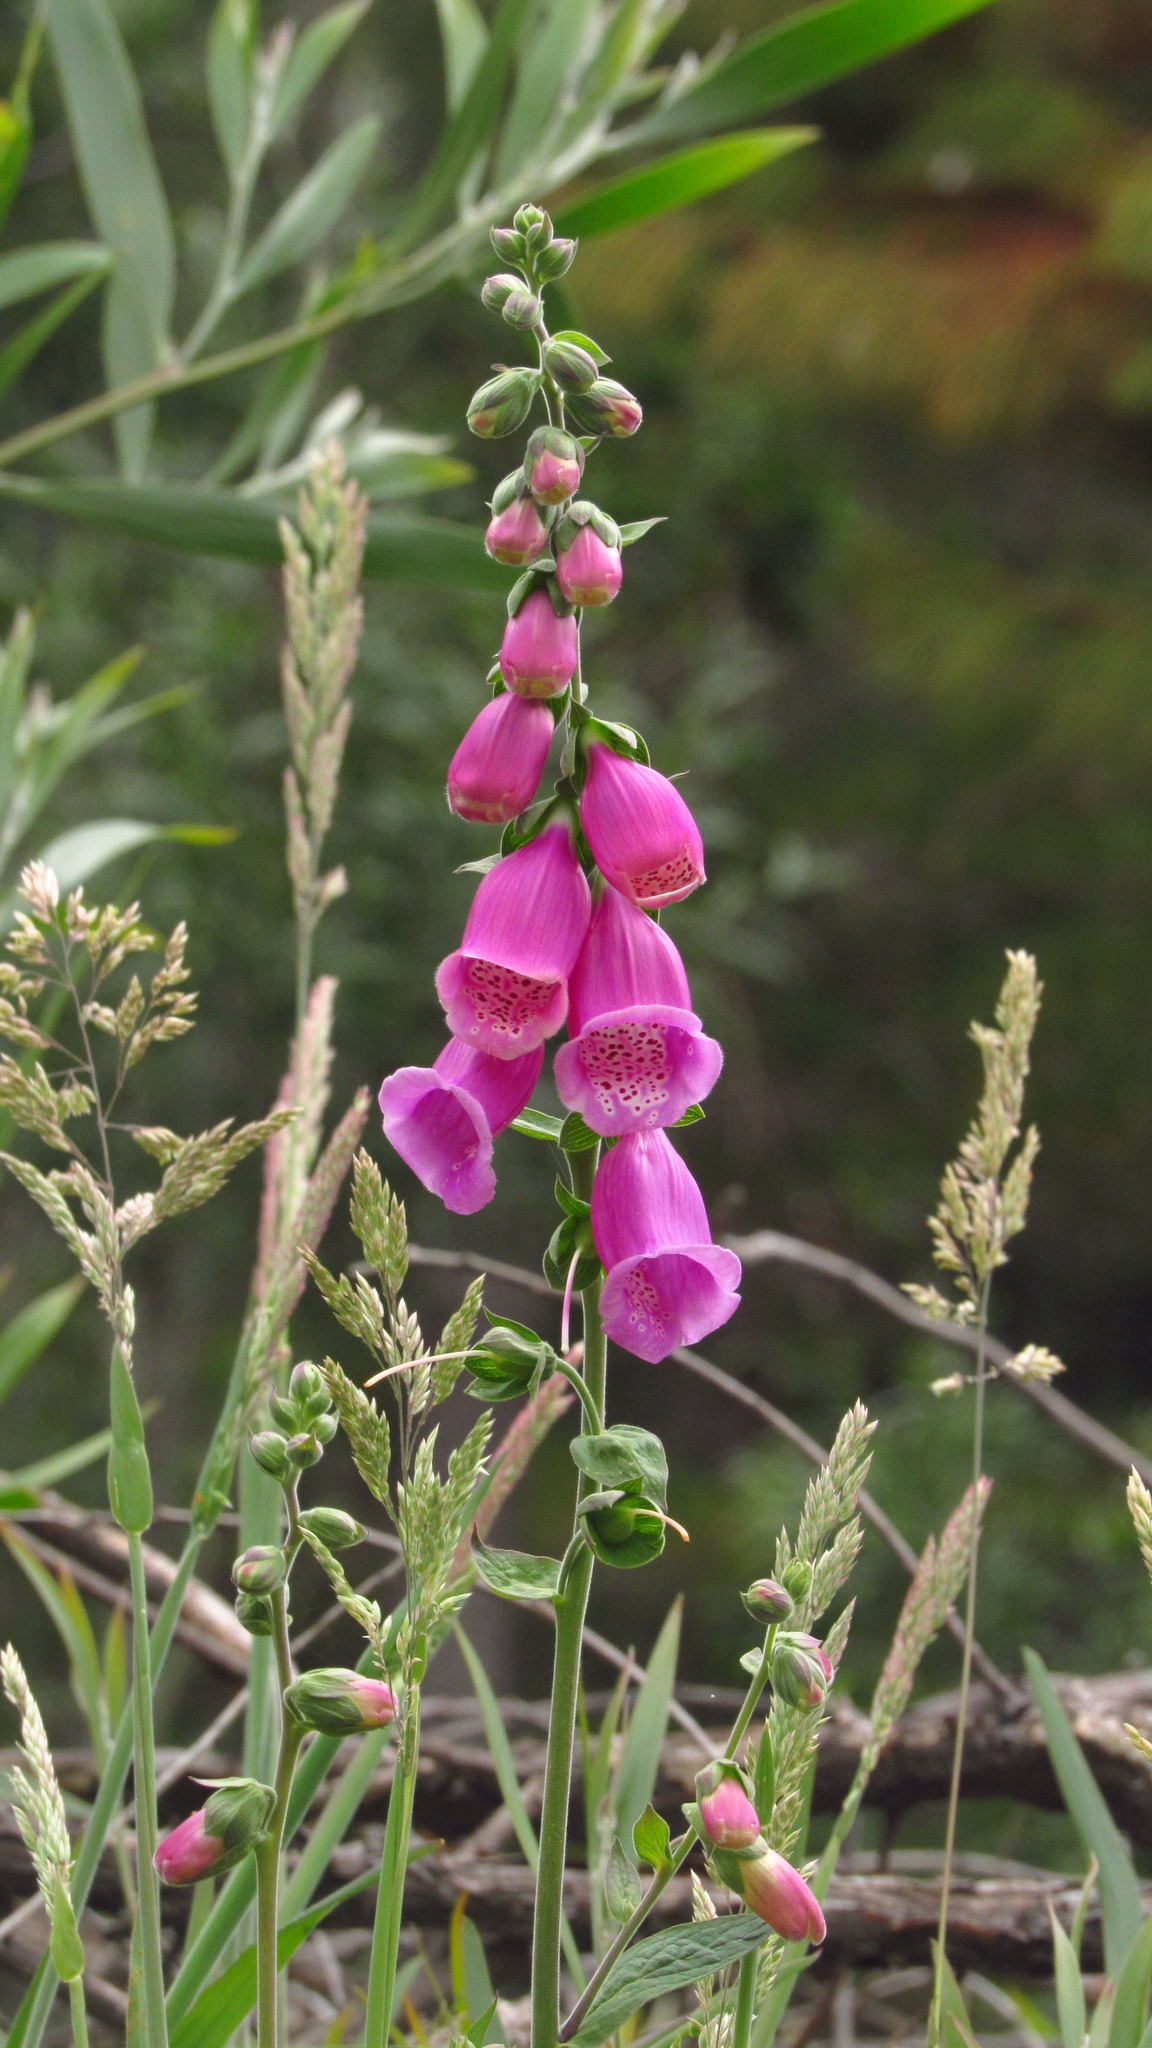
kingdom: Plantae
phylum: Tracheophyta
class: Magnoliopsida
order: Lamiales
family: Plantaginaceae
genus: Digitalis
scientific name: Digitalis purpurea
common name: Foxglove
